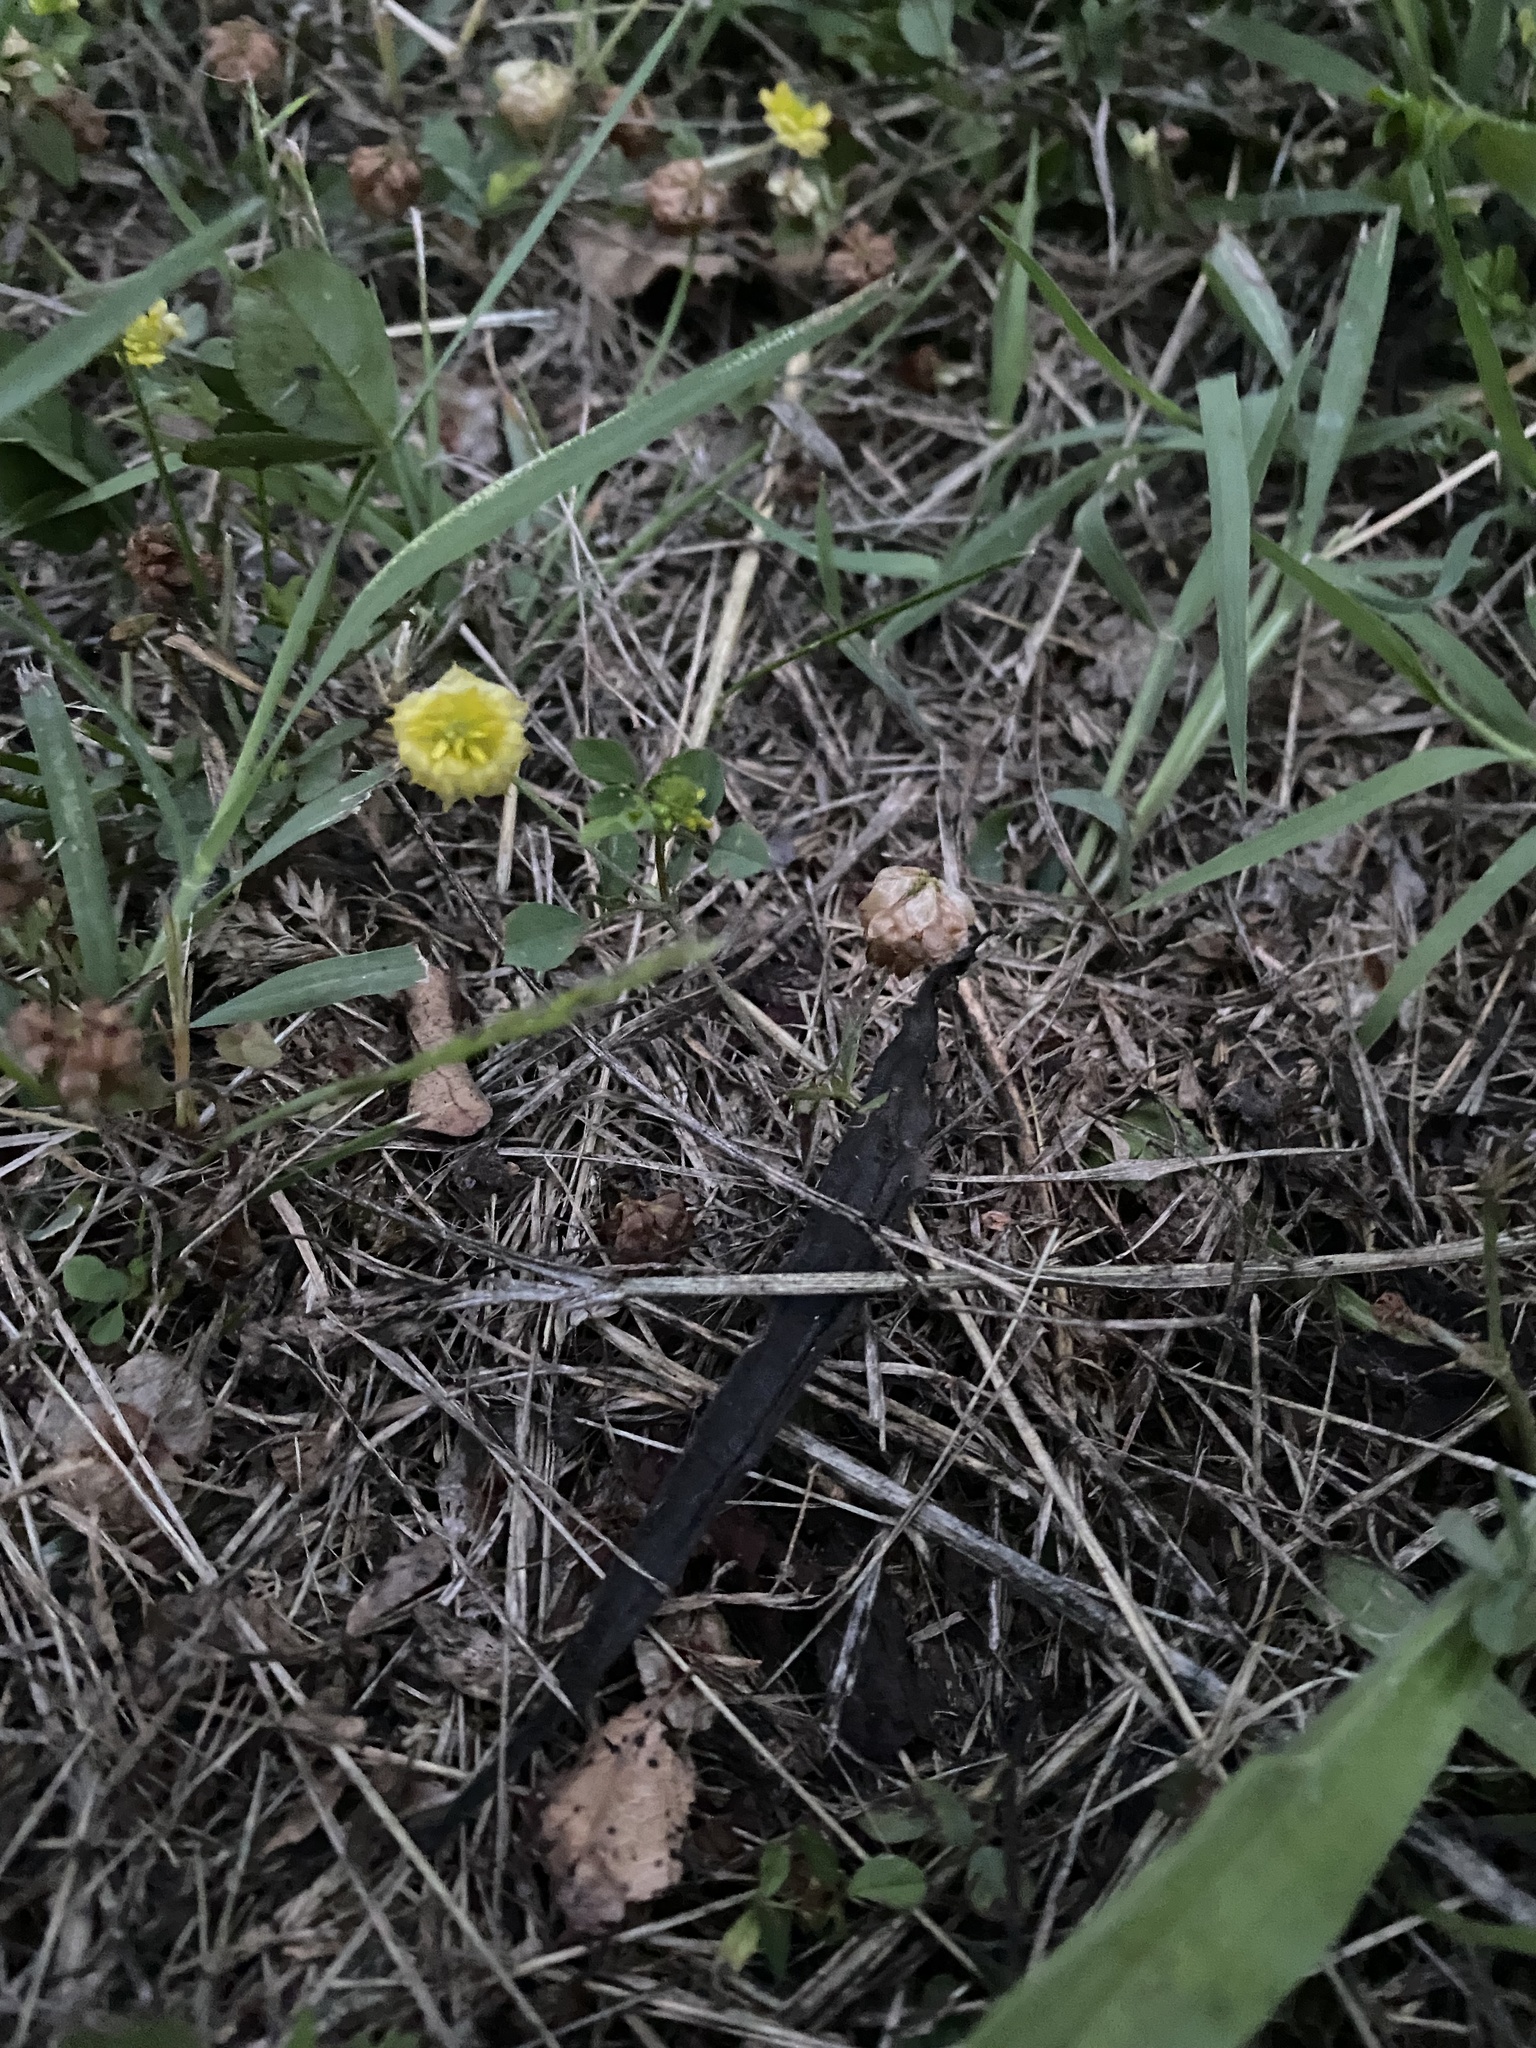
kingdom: Plantae
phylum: Tracheophyta
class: Magnoliopsida
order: Fabales
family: Fabaceae
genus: Trifolium
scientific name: Trifolium campestre
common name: Field clover
